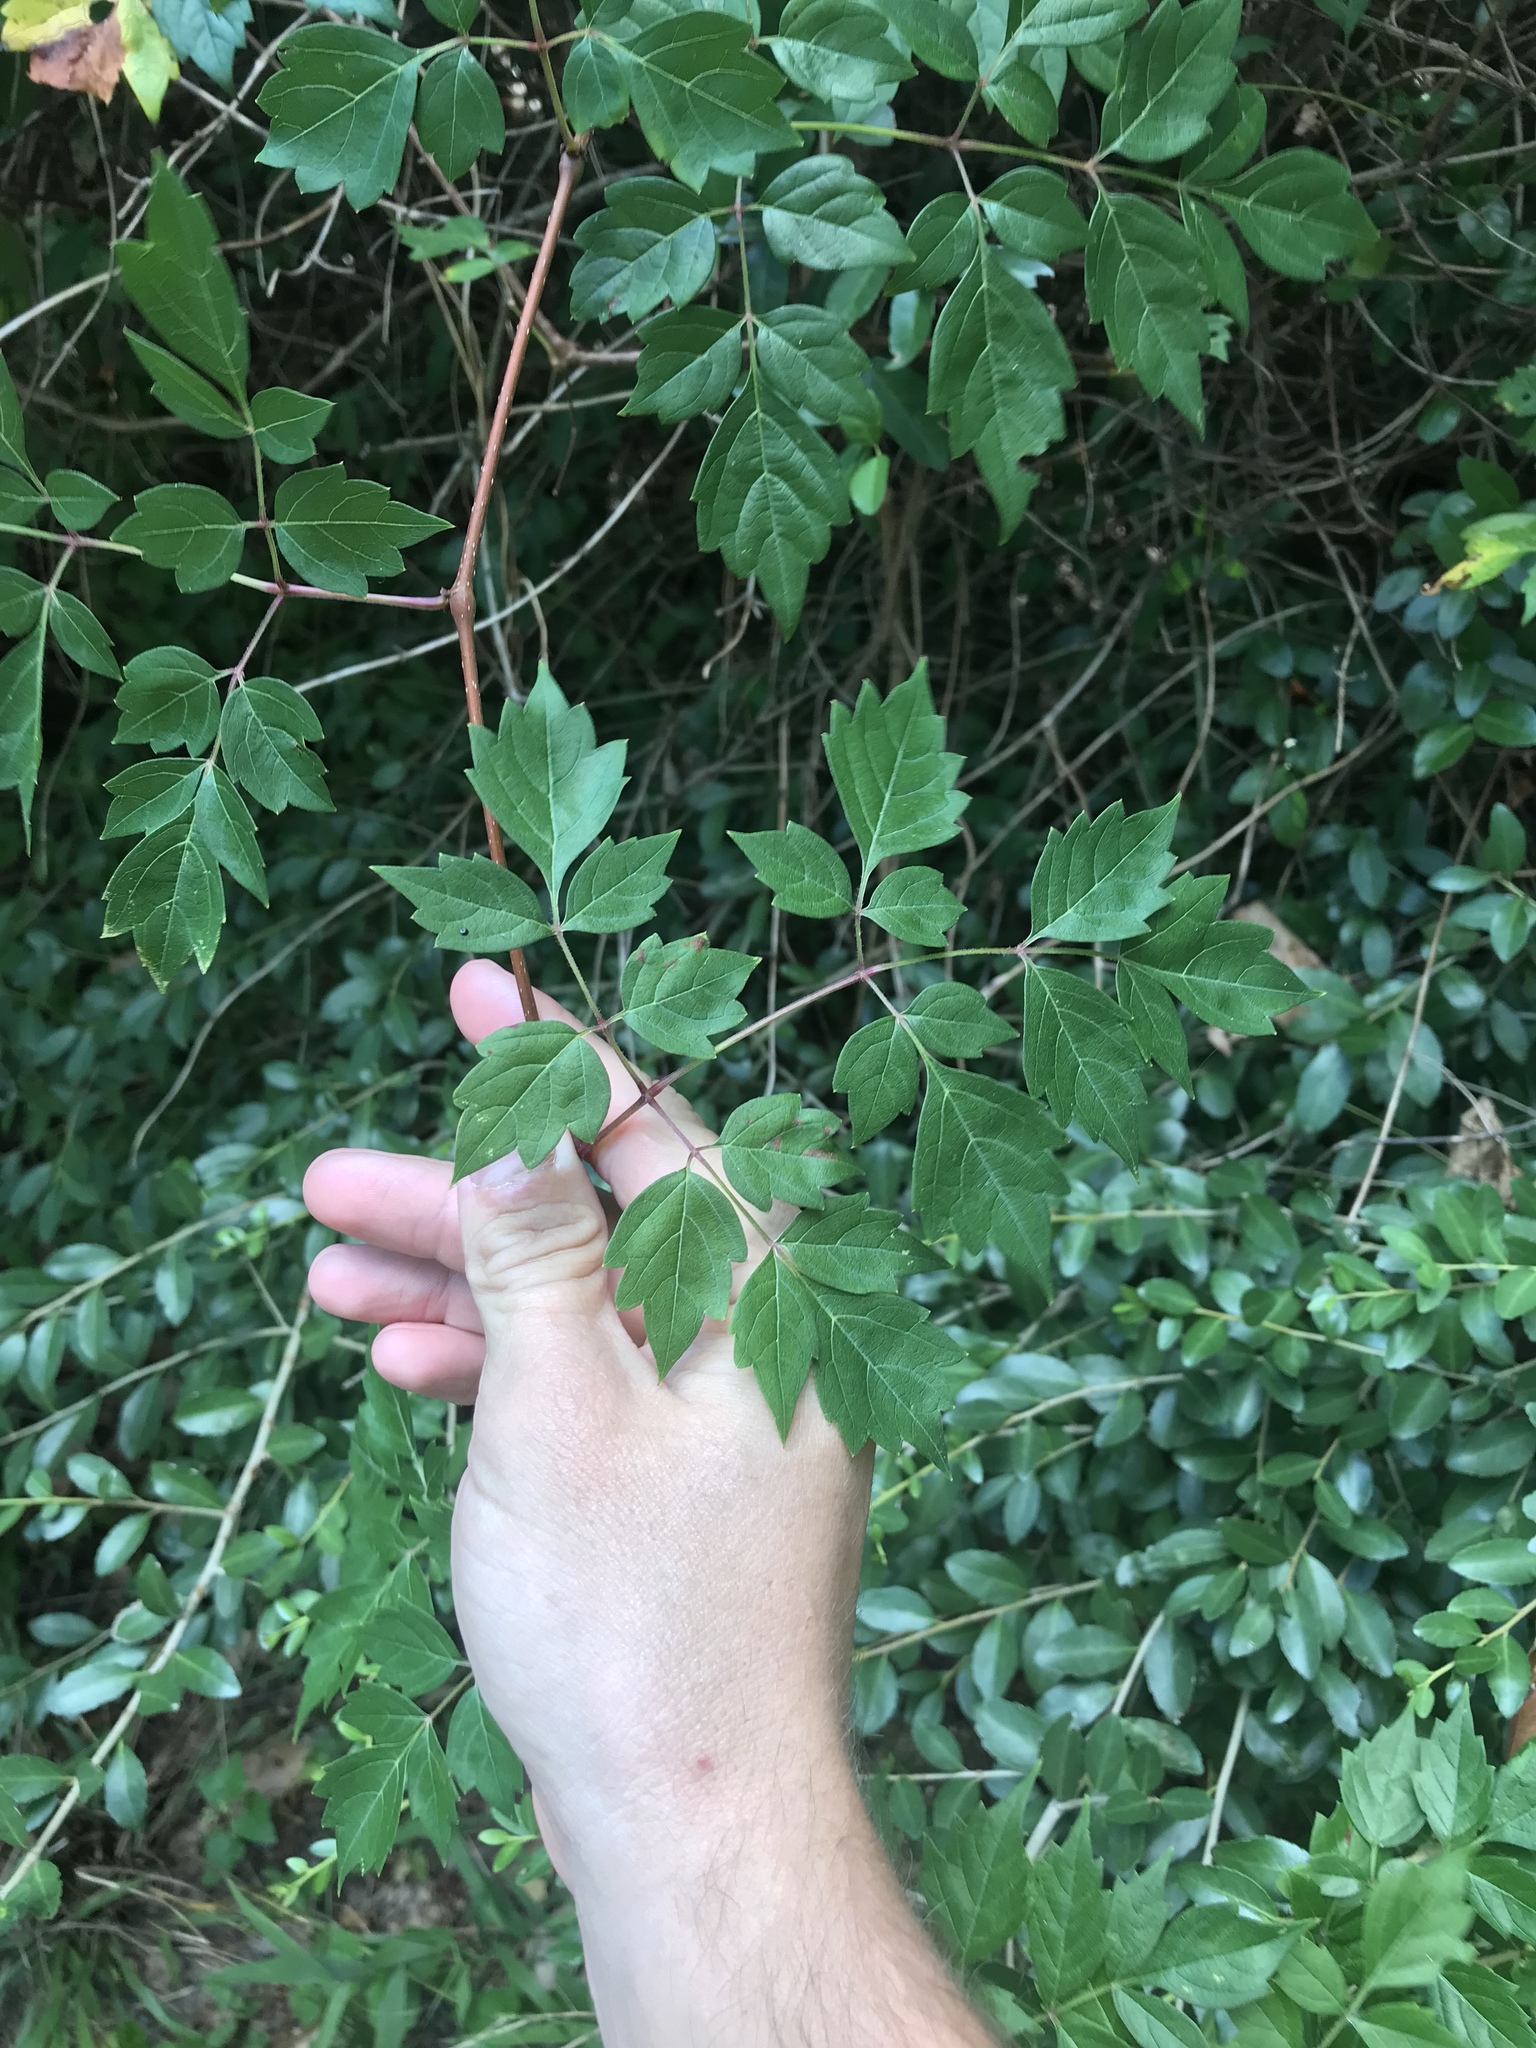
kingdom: Plantae
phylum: Tracheophyta
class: Magnoliopsida
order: Vitales
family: Vitaceae
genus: Nekemias
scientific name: Nekemias arborea
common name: Peppervine
